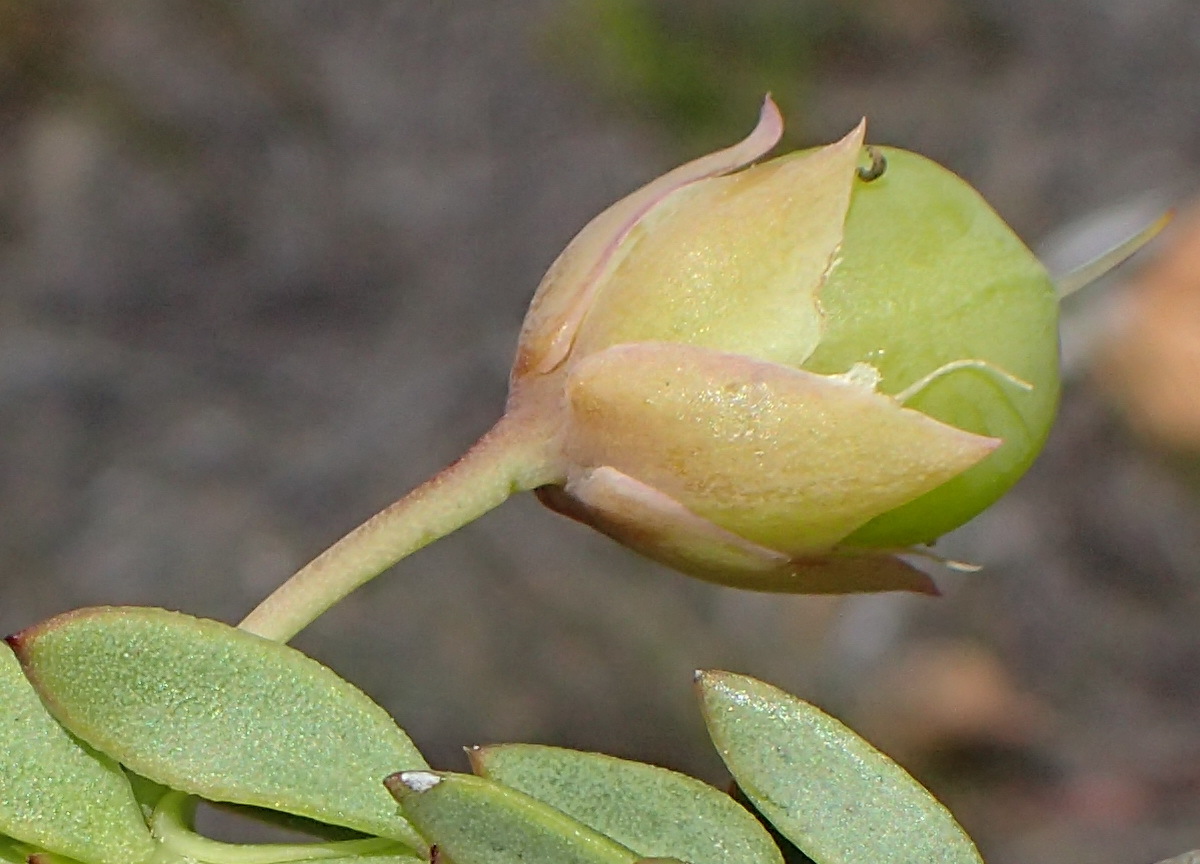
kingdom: Plantae
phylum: Tracheophyta
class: Magnoliopsida
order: Zygophyllales
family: Zygophyllaceae
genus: Roepera
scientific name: Roepera fulva
